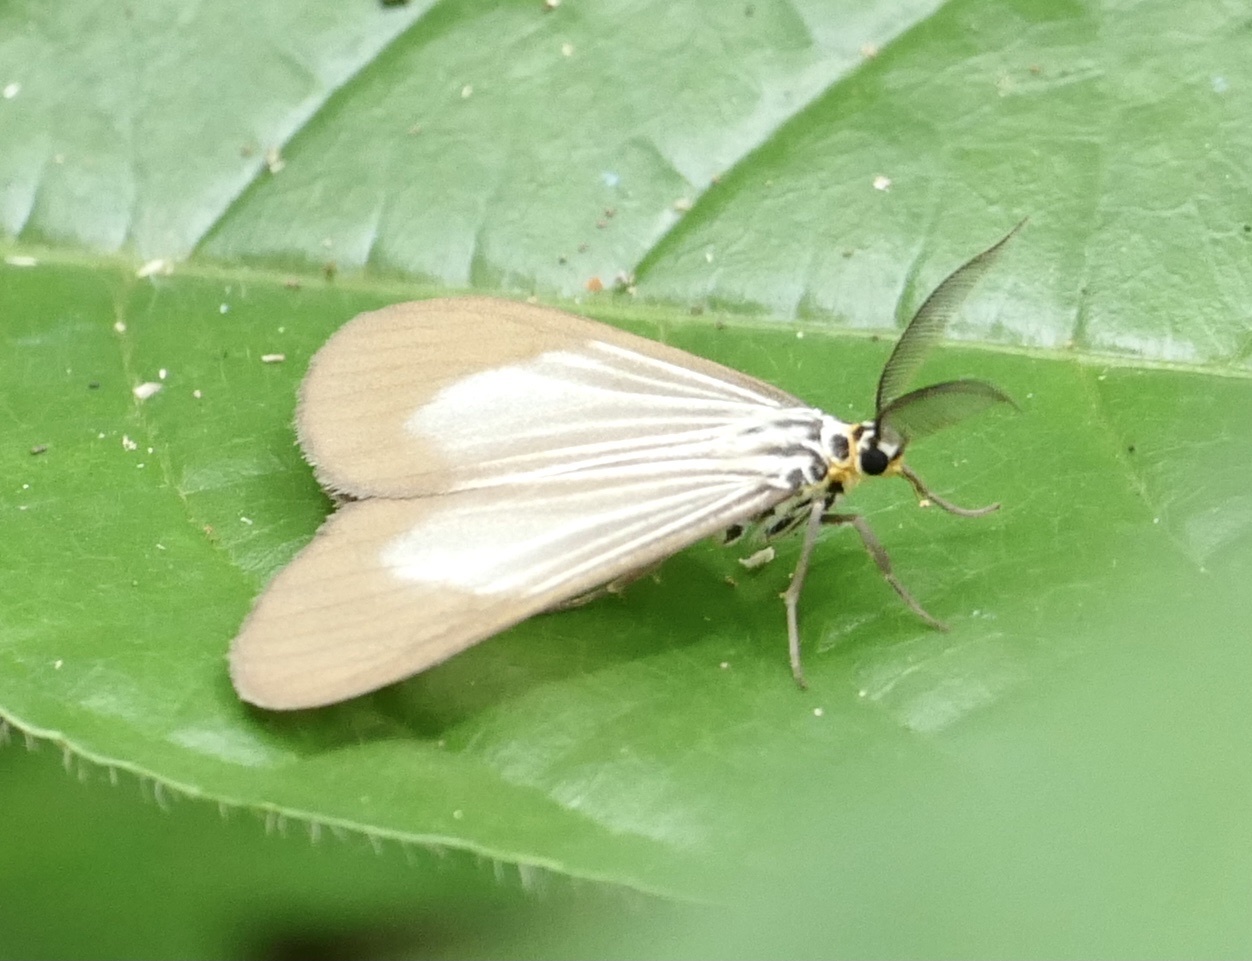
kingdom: Animalia
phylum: Arthropoda
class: Insecta
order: Lepidoptera
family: Erebidae
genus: Nyctemera
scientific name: Nyctemera
